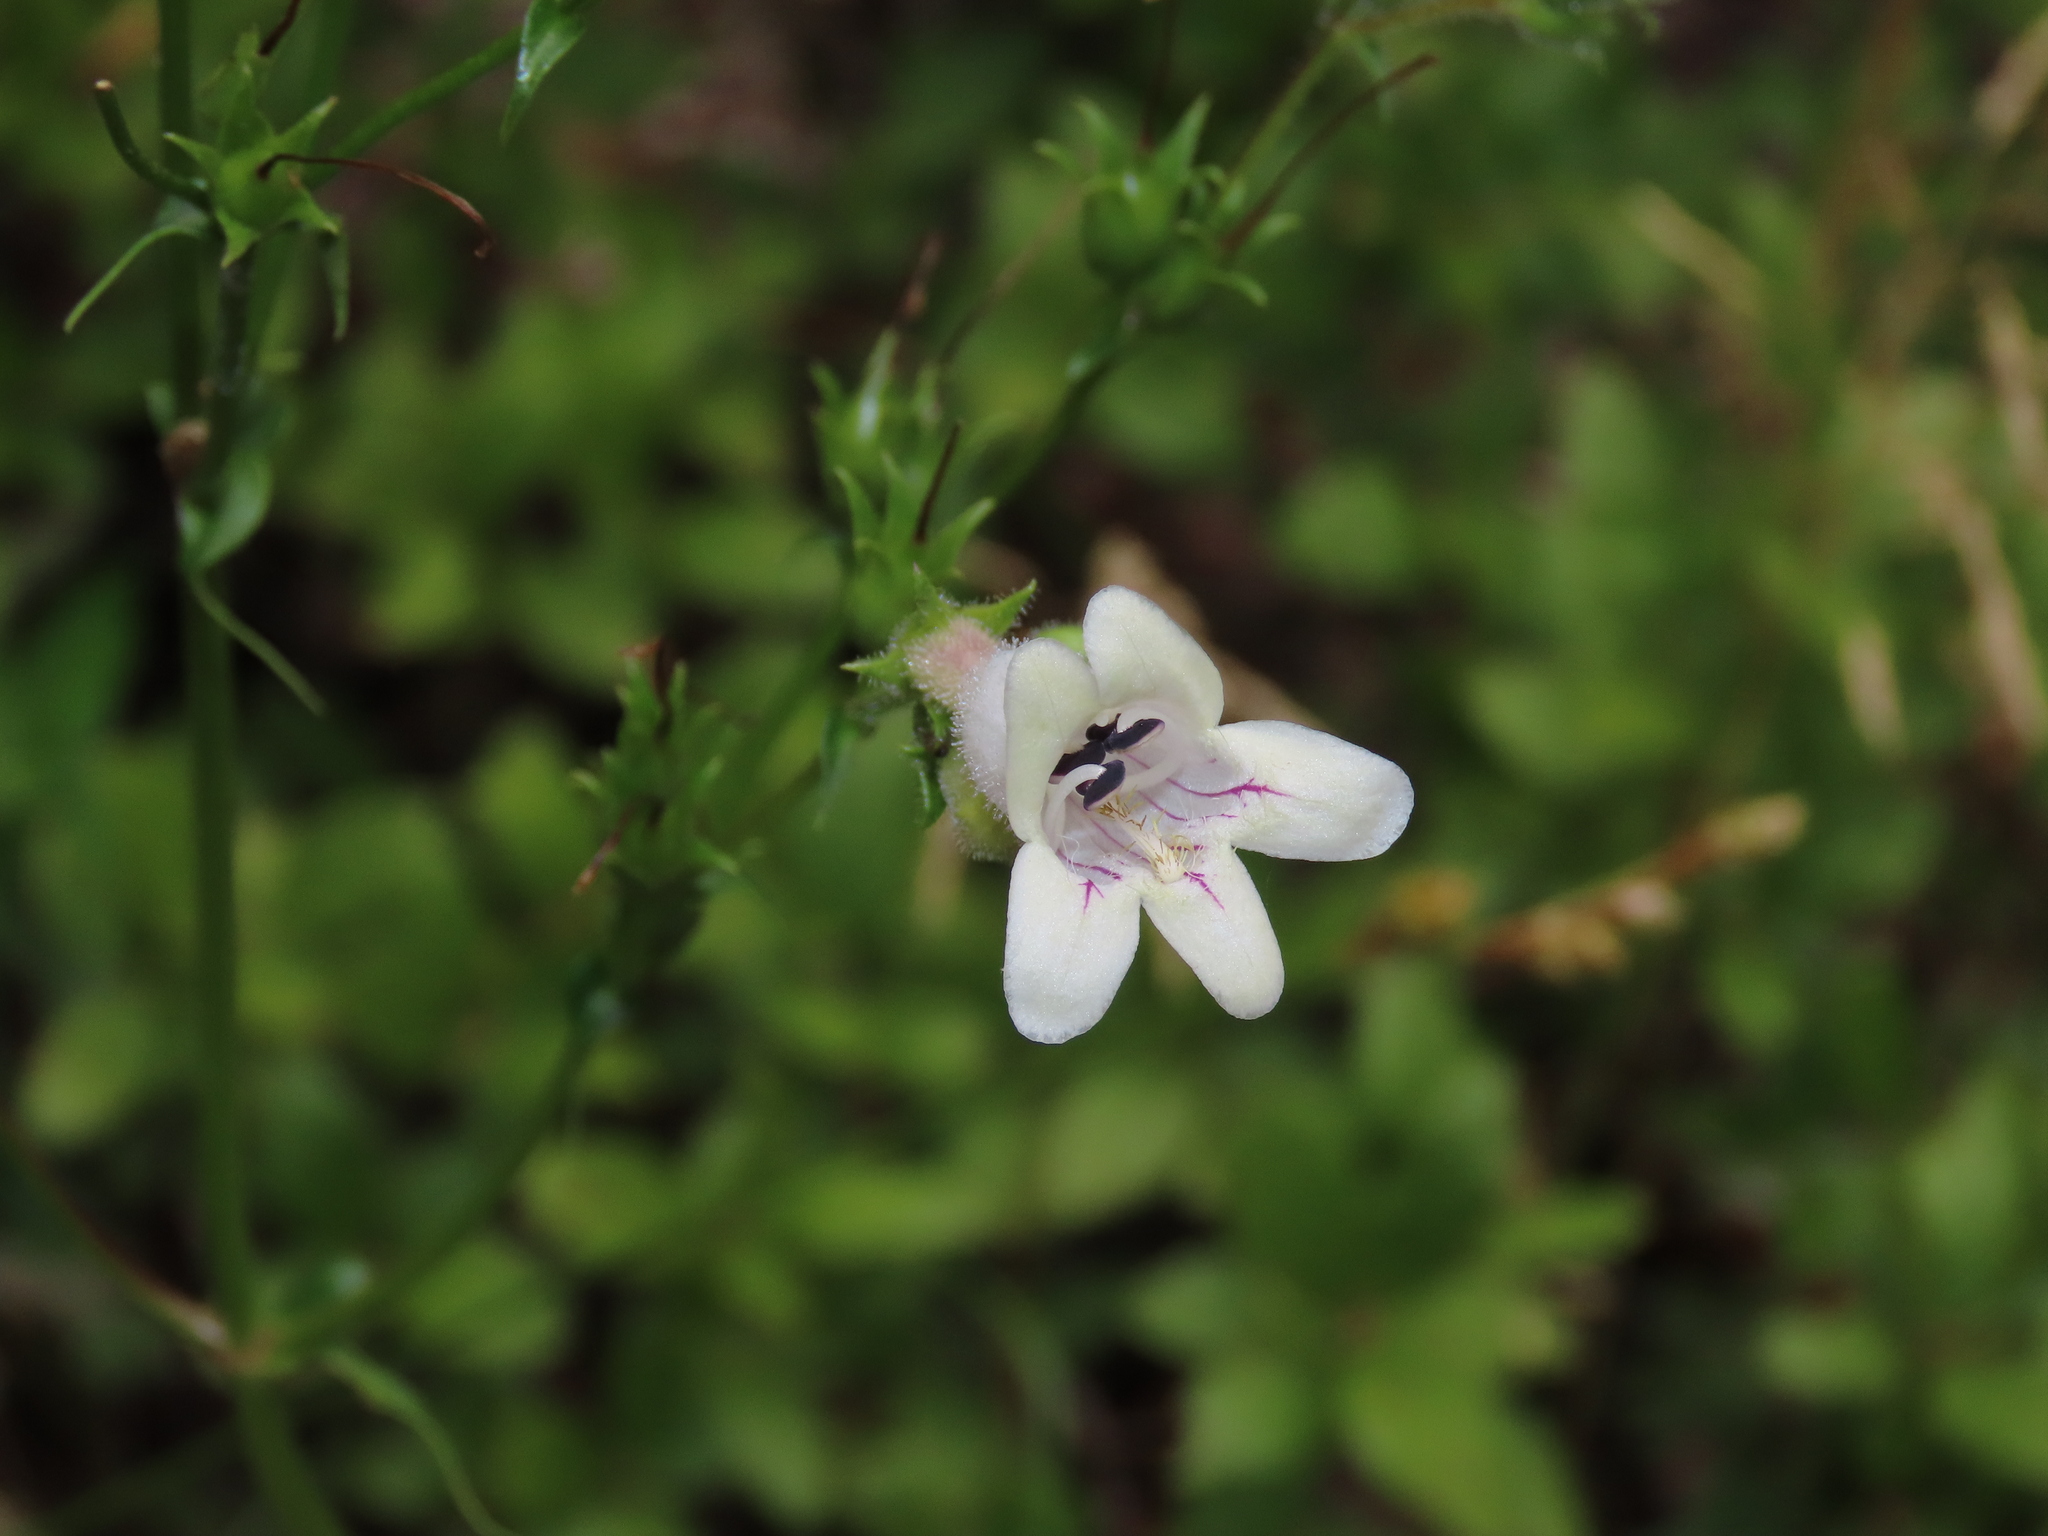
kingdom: Plantae
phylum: Tracheophyta
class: Magnoliopsida
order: Lamiales
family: Plantaginaceae
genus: Penstemon
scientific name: Penstemon digitalis
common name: Foxglove beardtongue
